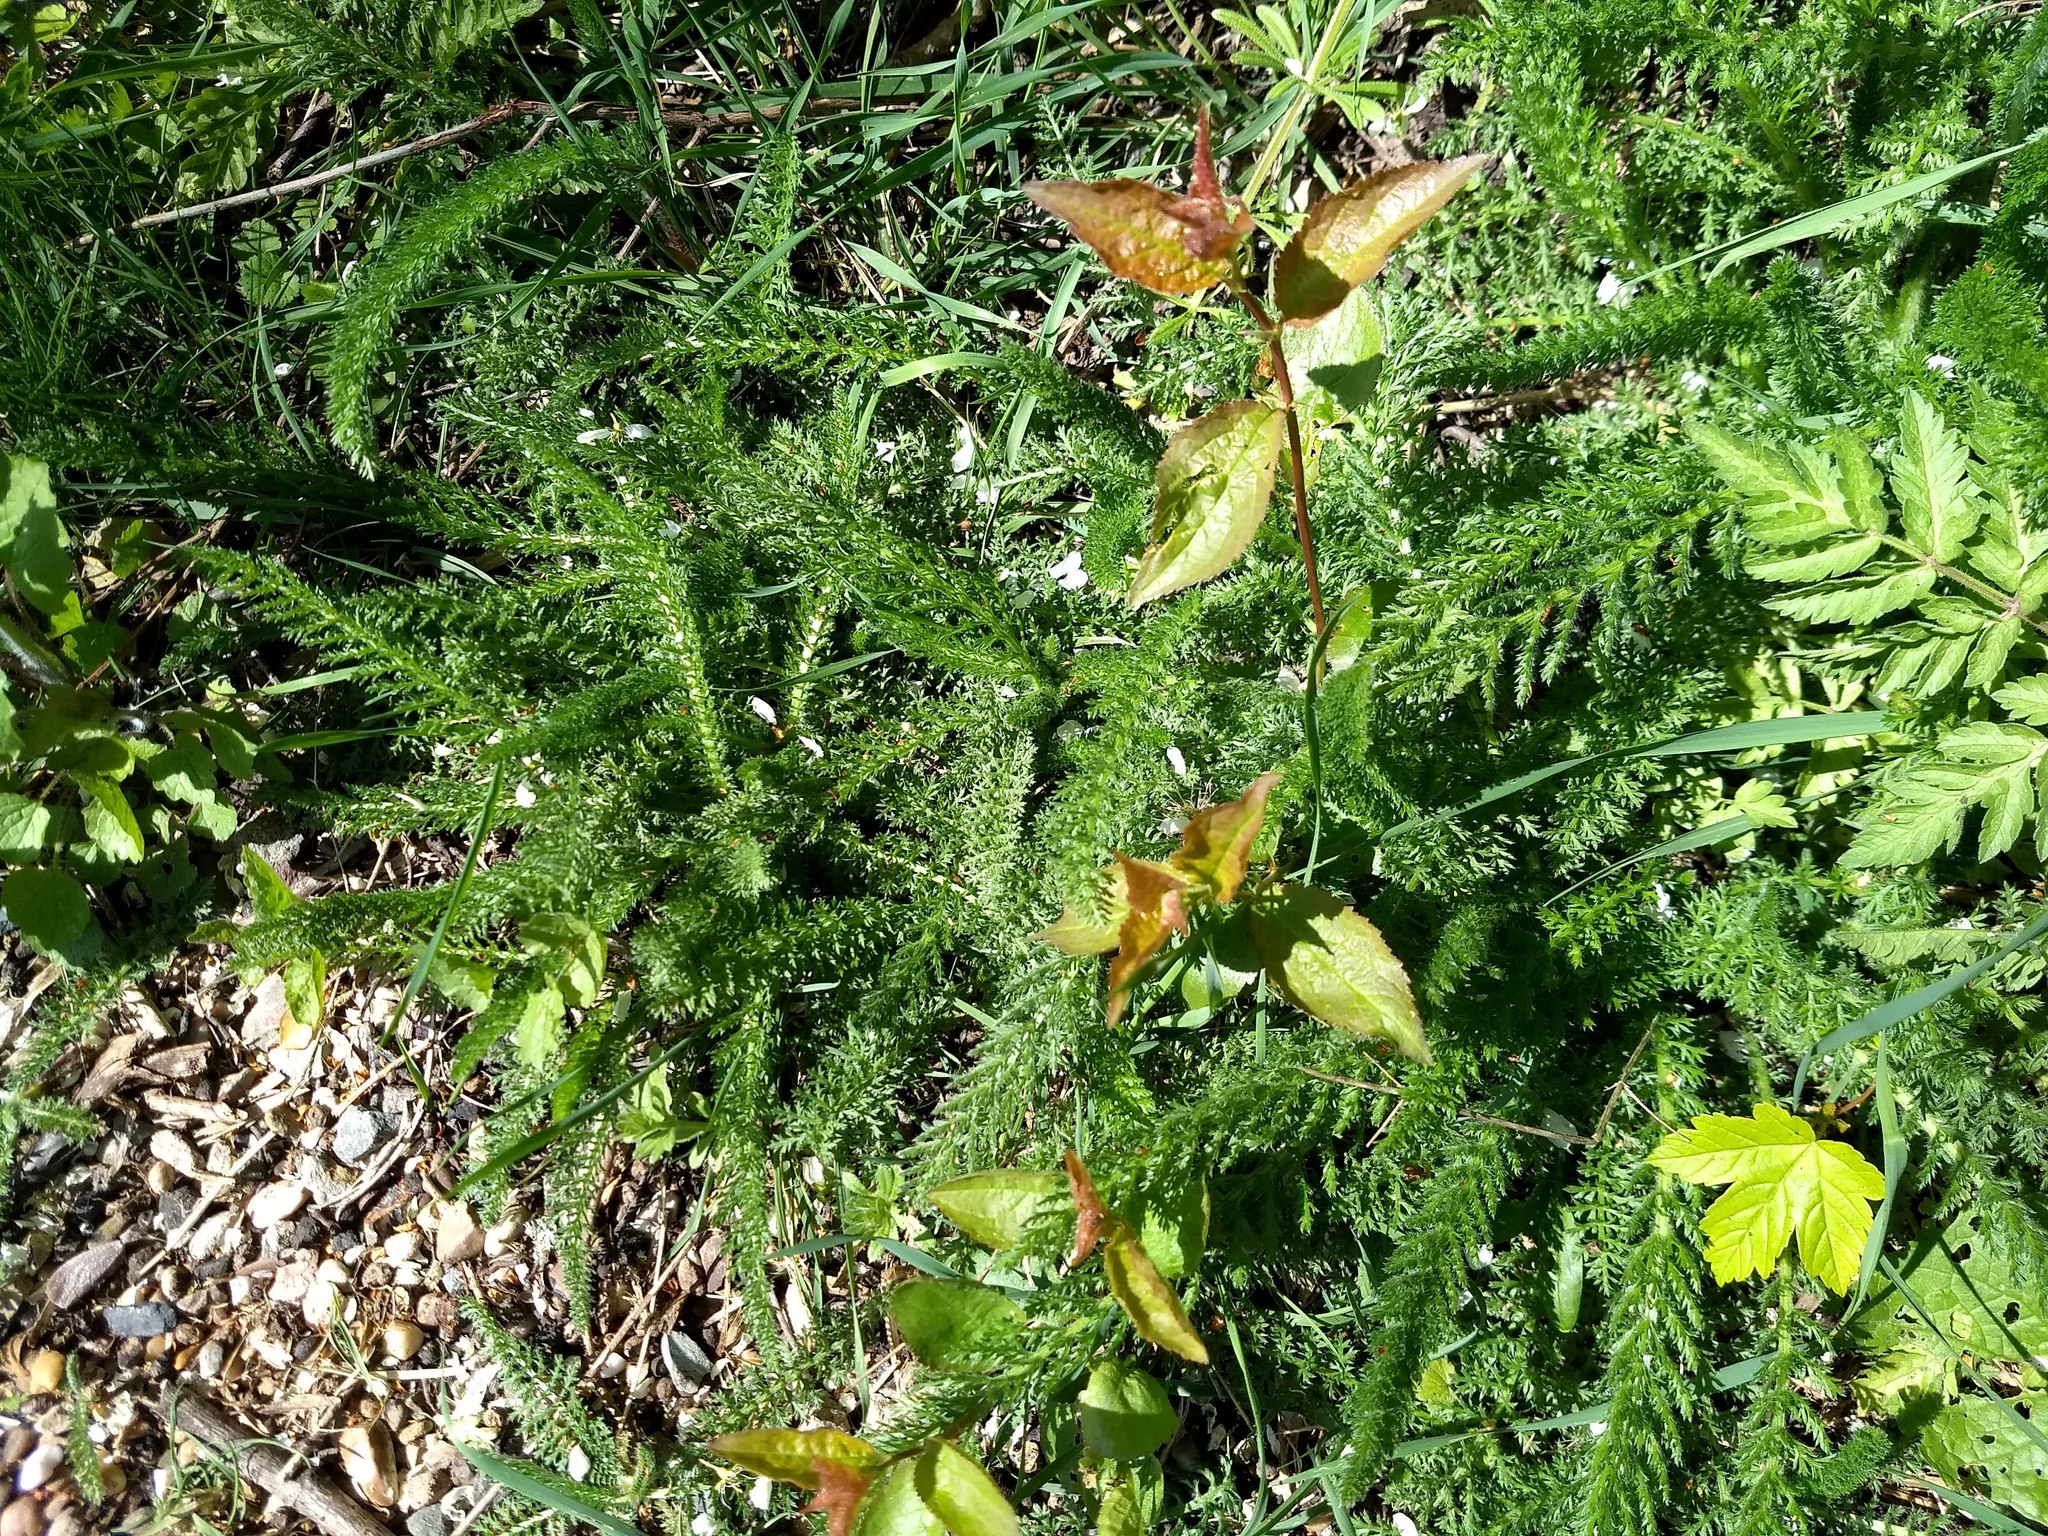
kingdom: Plantae
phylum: Tracheophyta
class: Magnoliopsida
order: Asterales
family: Asteraceae
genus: Achillea
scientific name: Achillea millefolium
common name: Yarrow
